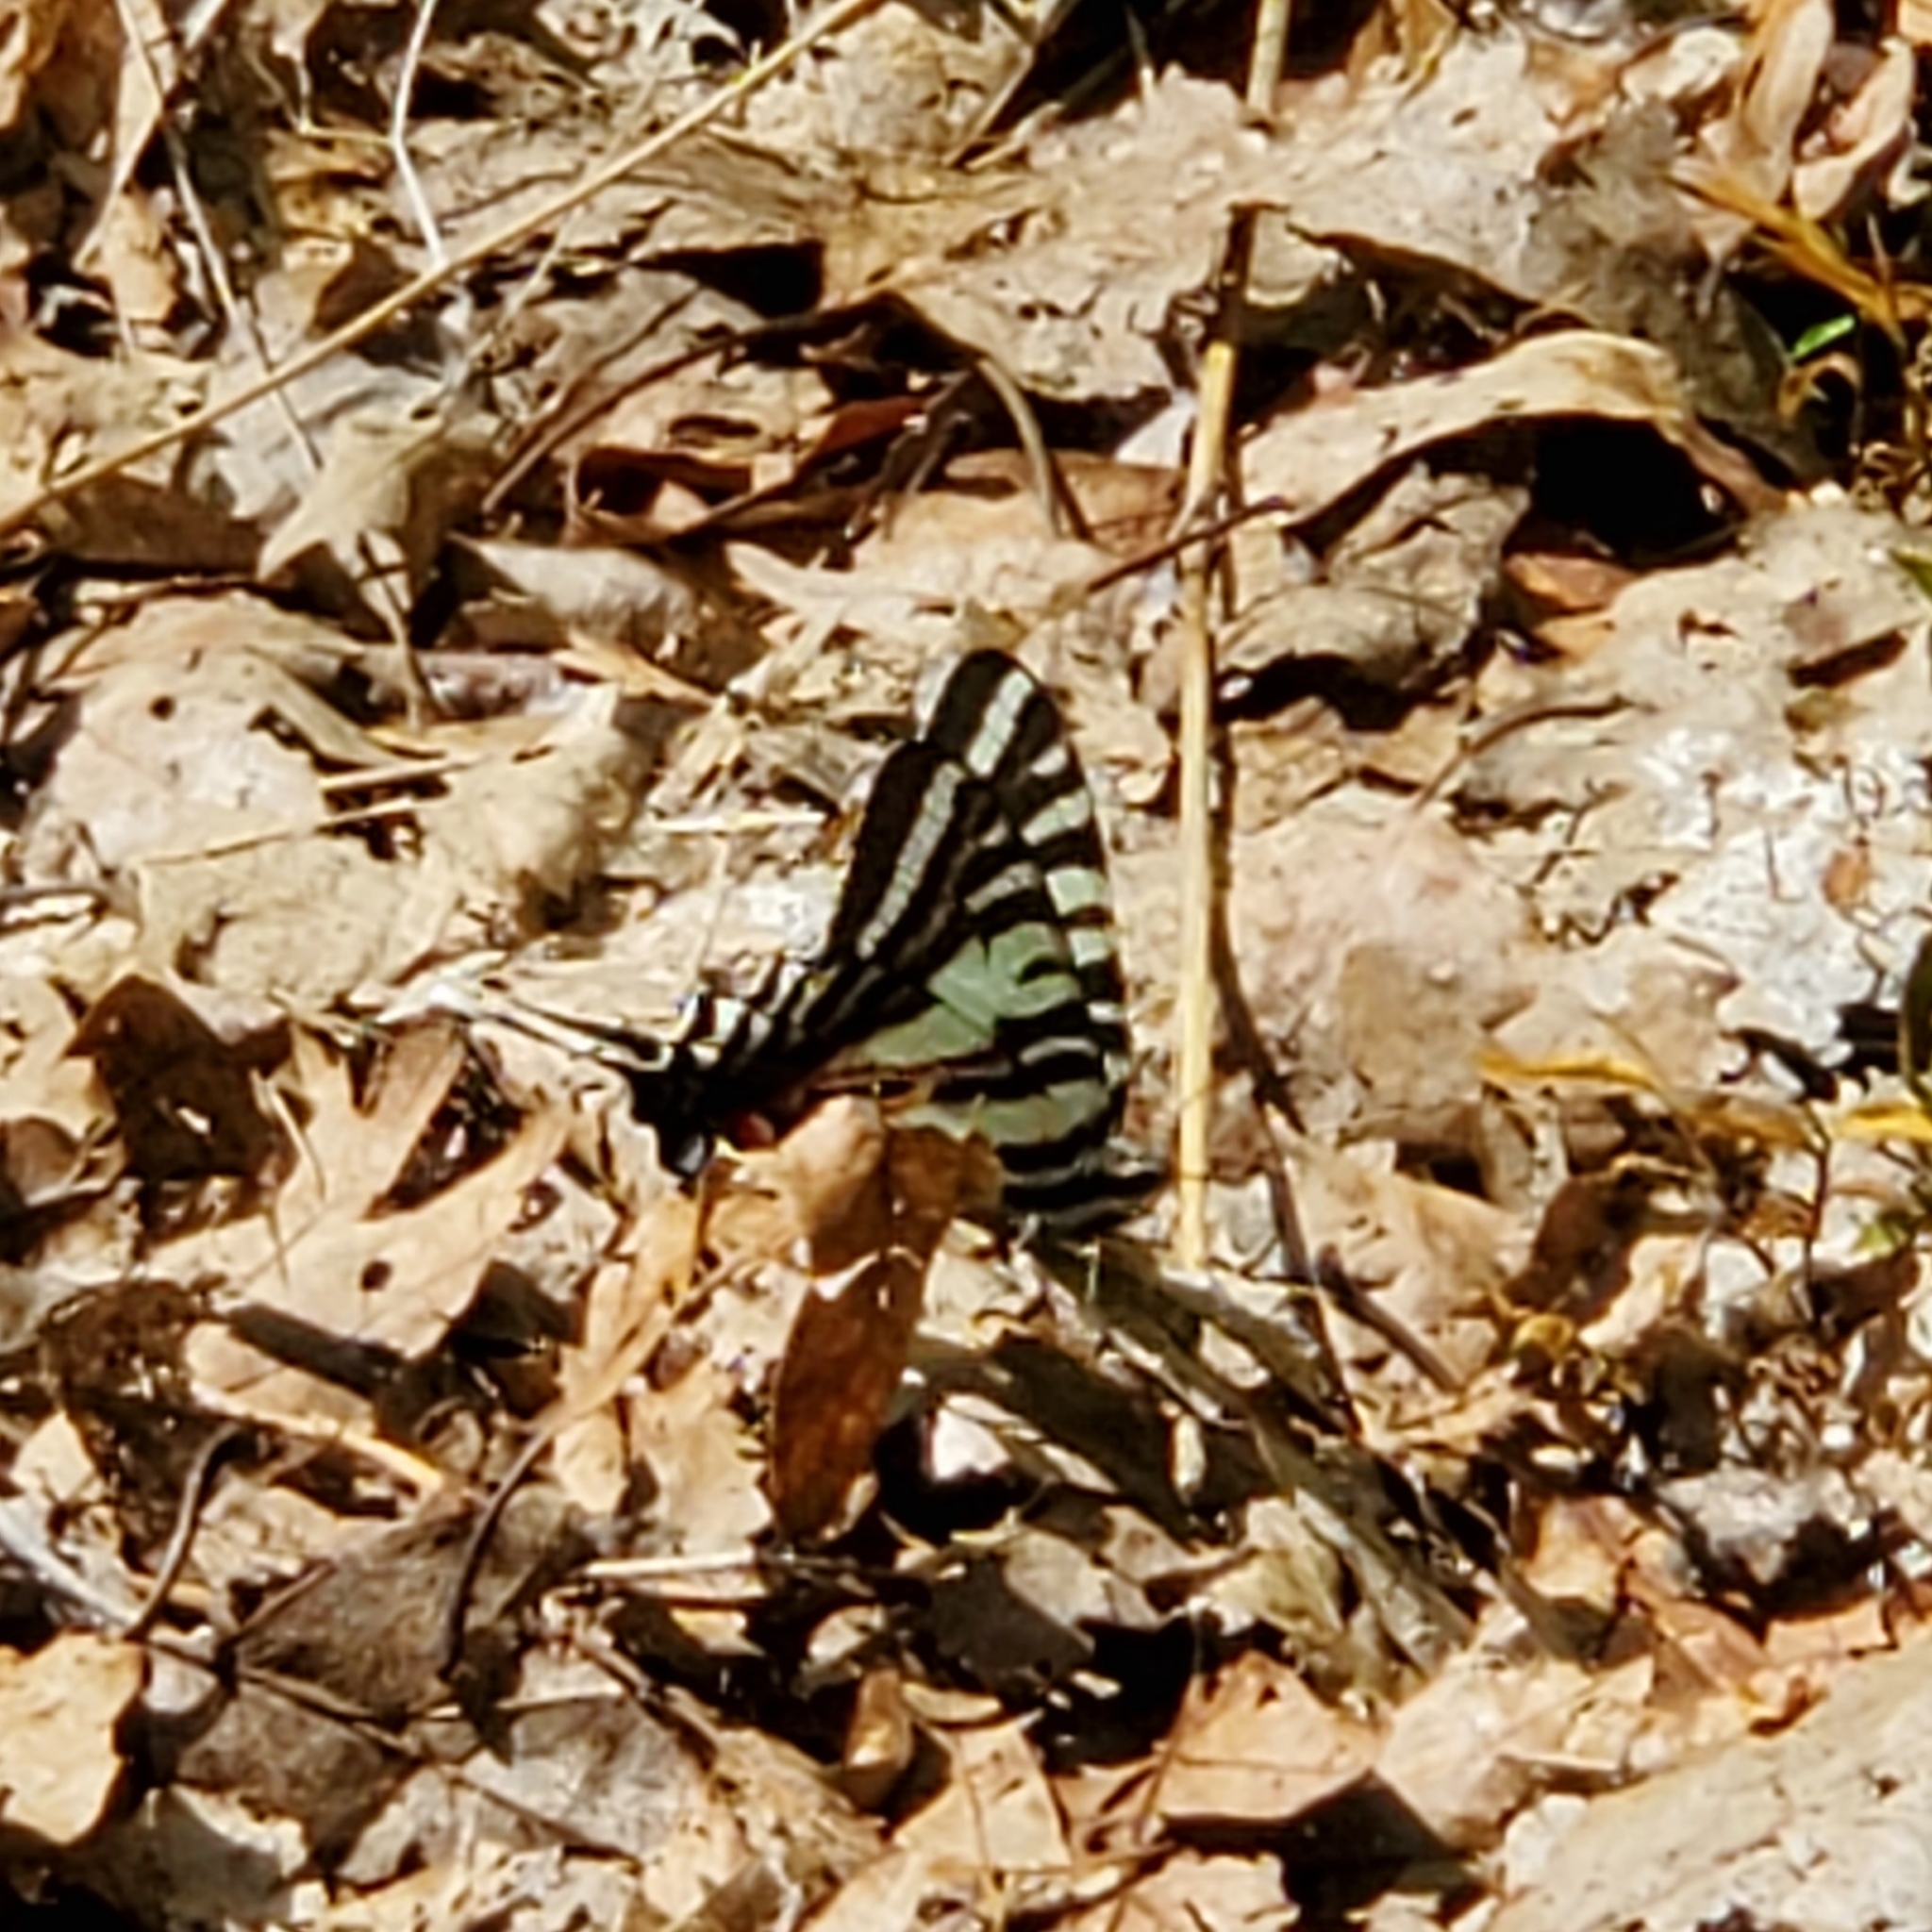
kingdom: Animalia
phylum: Arthropoda
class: Insecta
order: Lepidoptera
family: Papilionidae
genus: Protographium
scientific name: Protographium marcellus
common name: Zebra swallowtail
